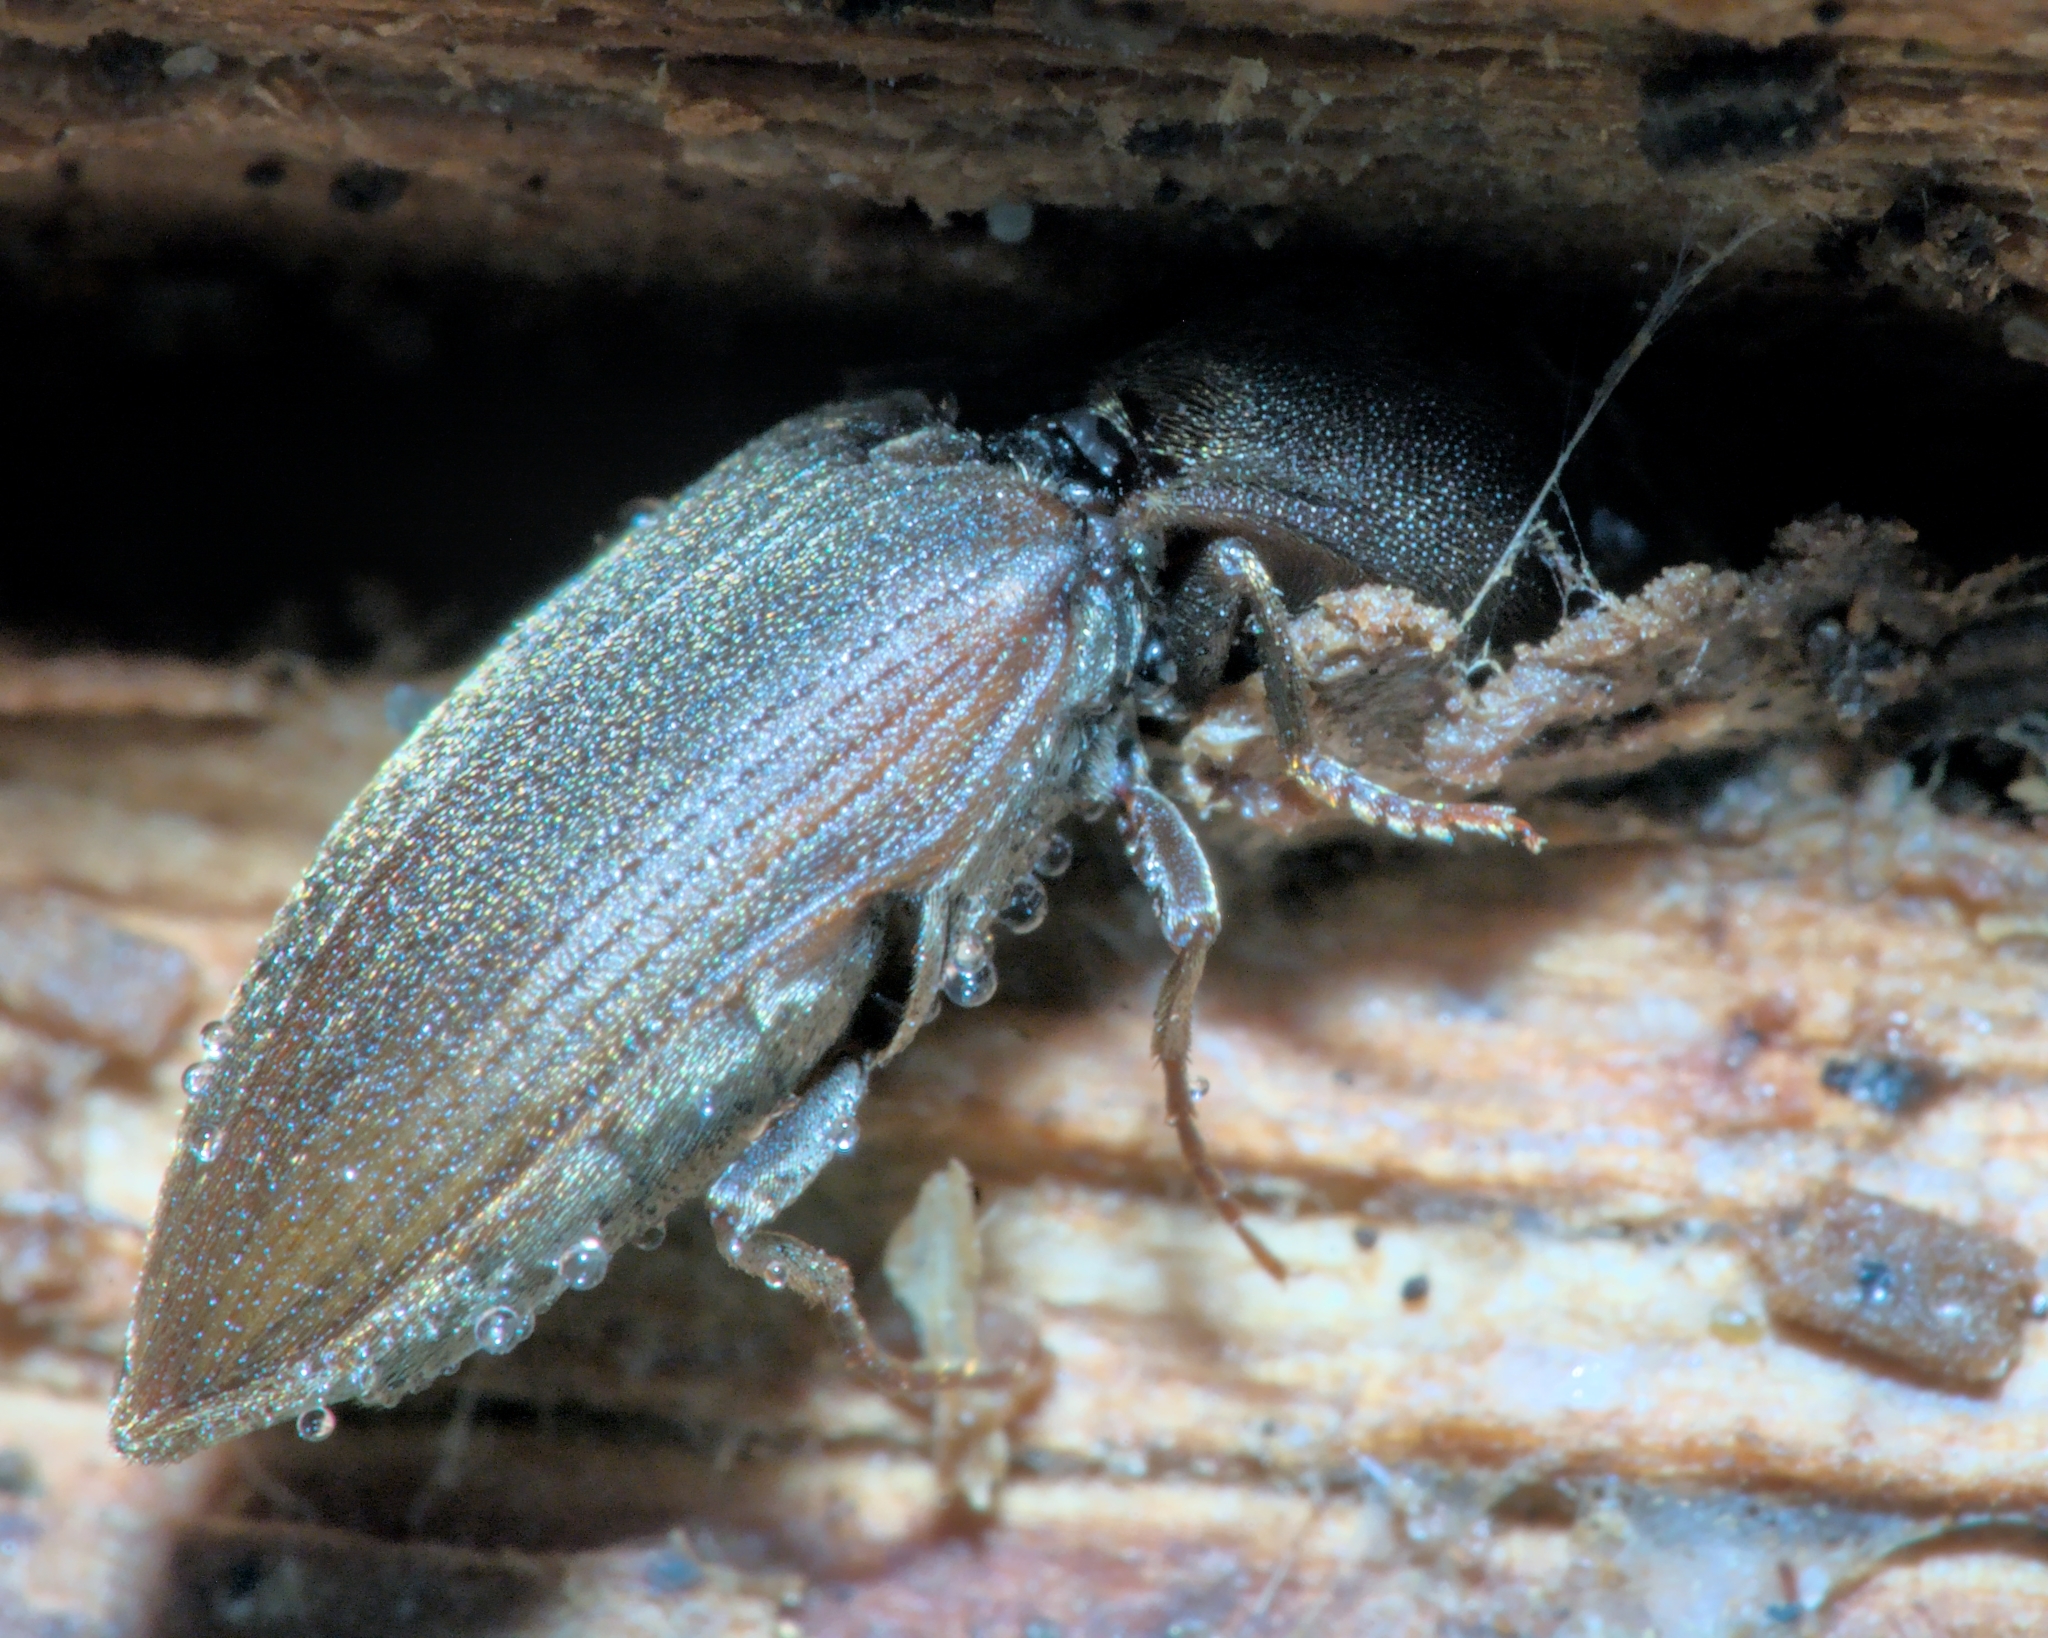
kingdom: Animalia
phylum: Arthropoda
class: Insecta
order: Coleoptera
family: Elateridae
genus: Agriotes
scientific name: Agriotes obscurus
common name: Dusky wireworm
